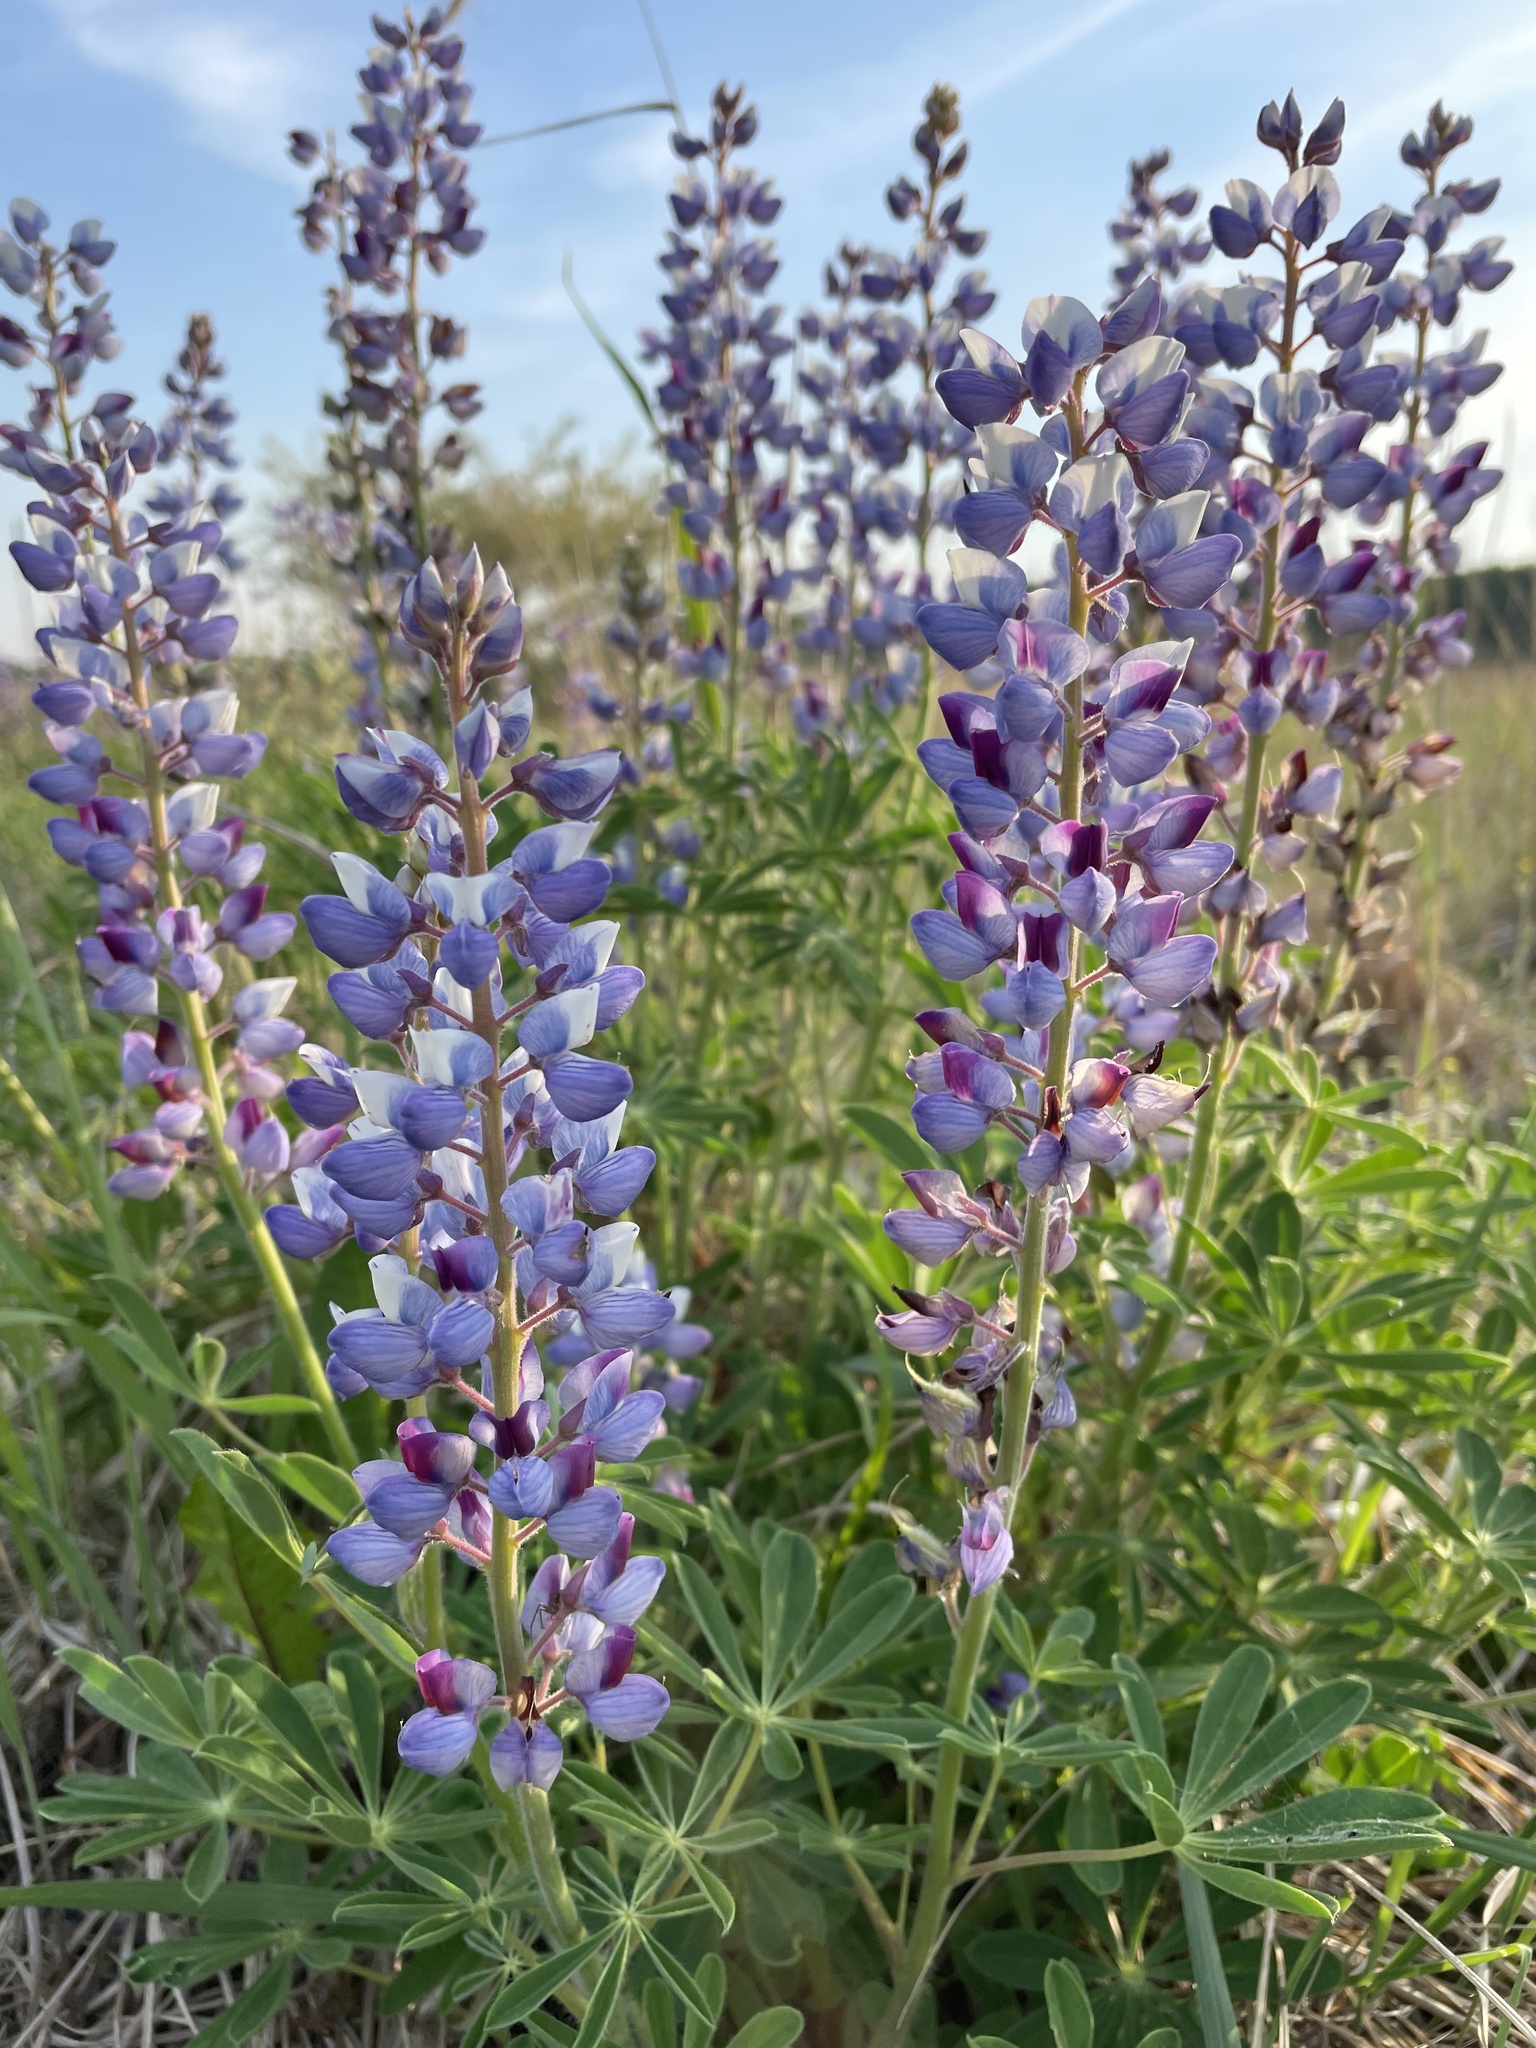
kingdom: Plantae
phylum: Tracheophyta
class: Magnoliopsida
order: Fabales
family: Fabaceae
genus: Lupinus
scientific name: Lupinus perennis
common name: Sundial lupine
